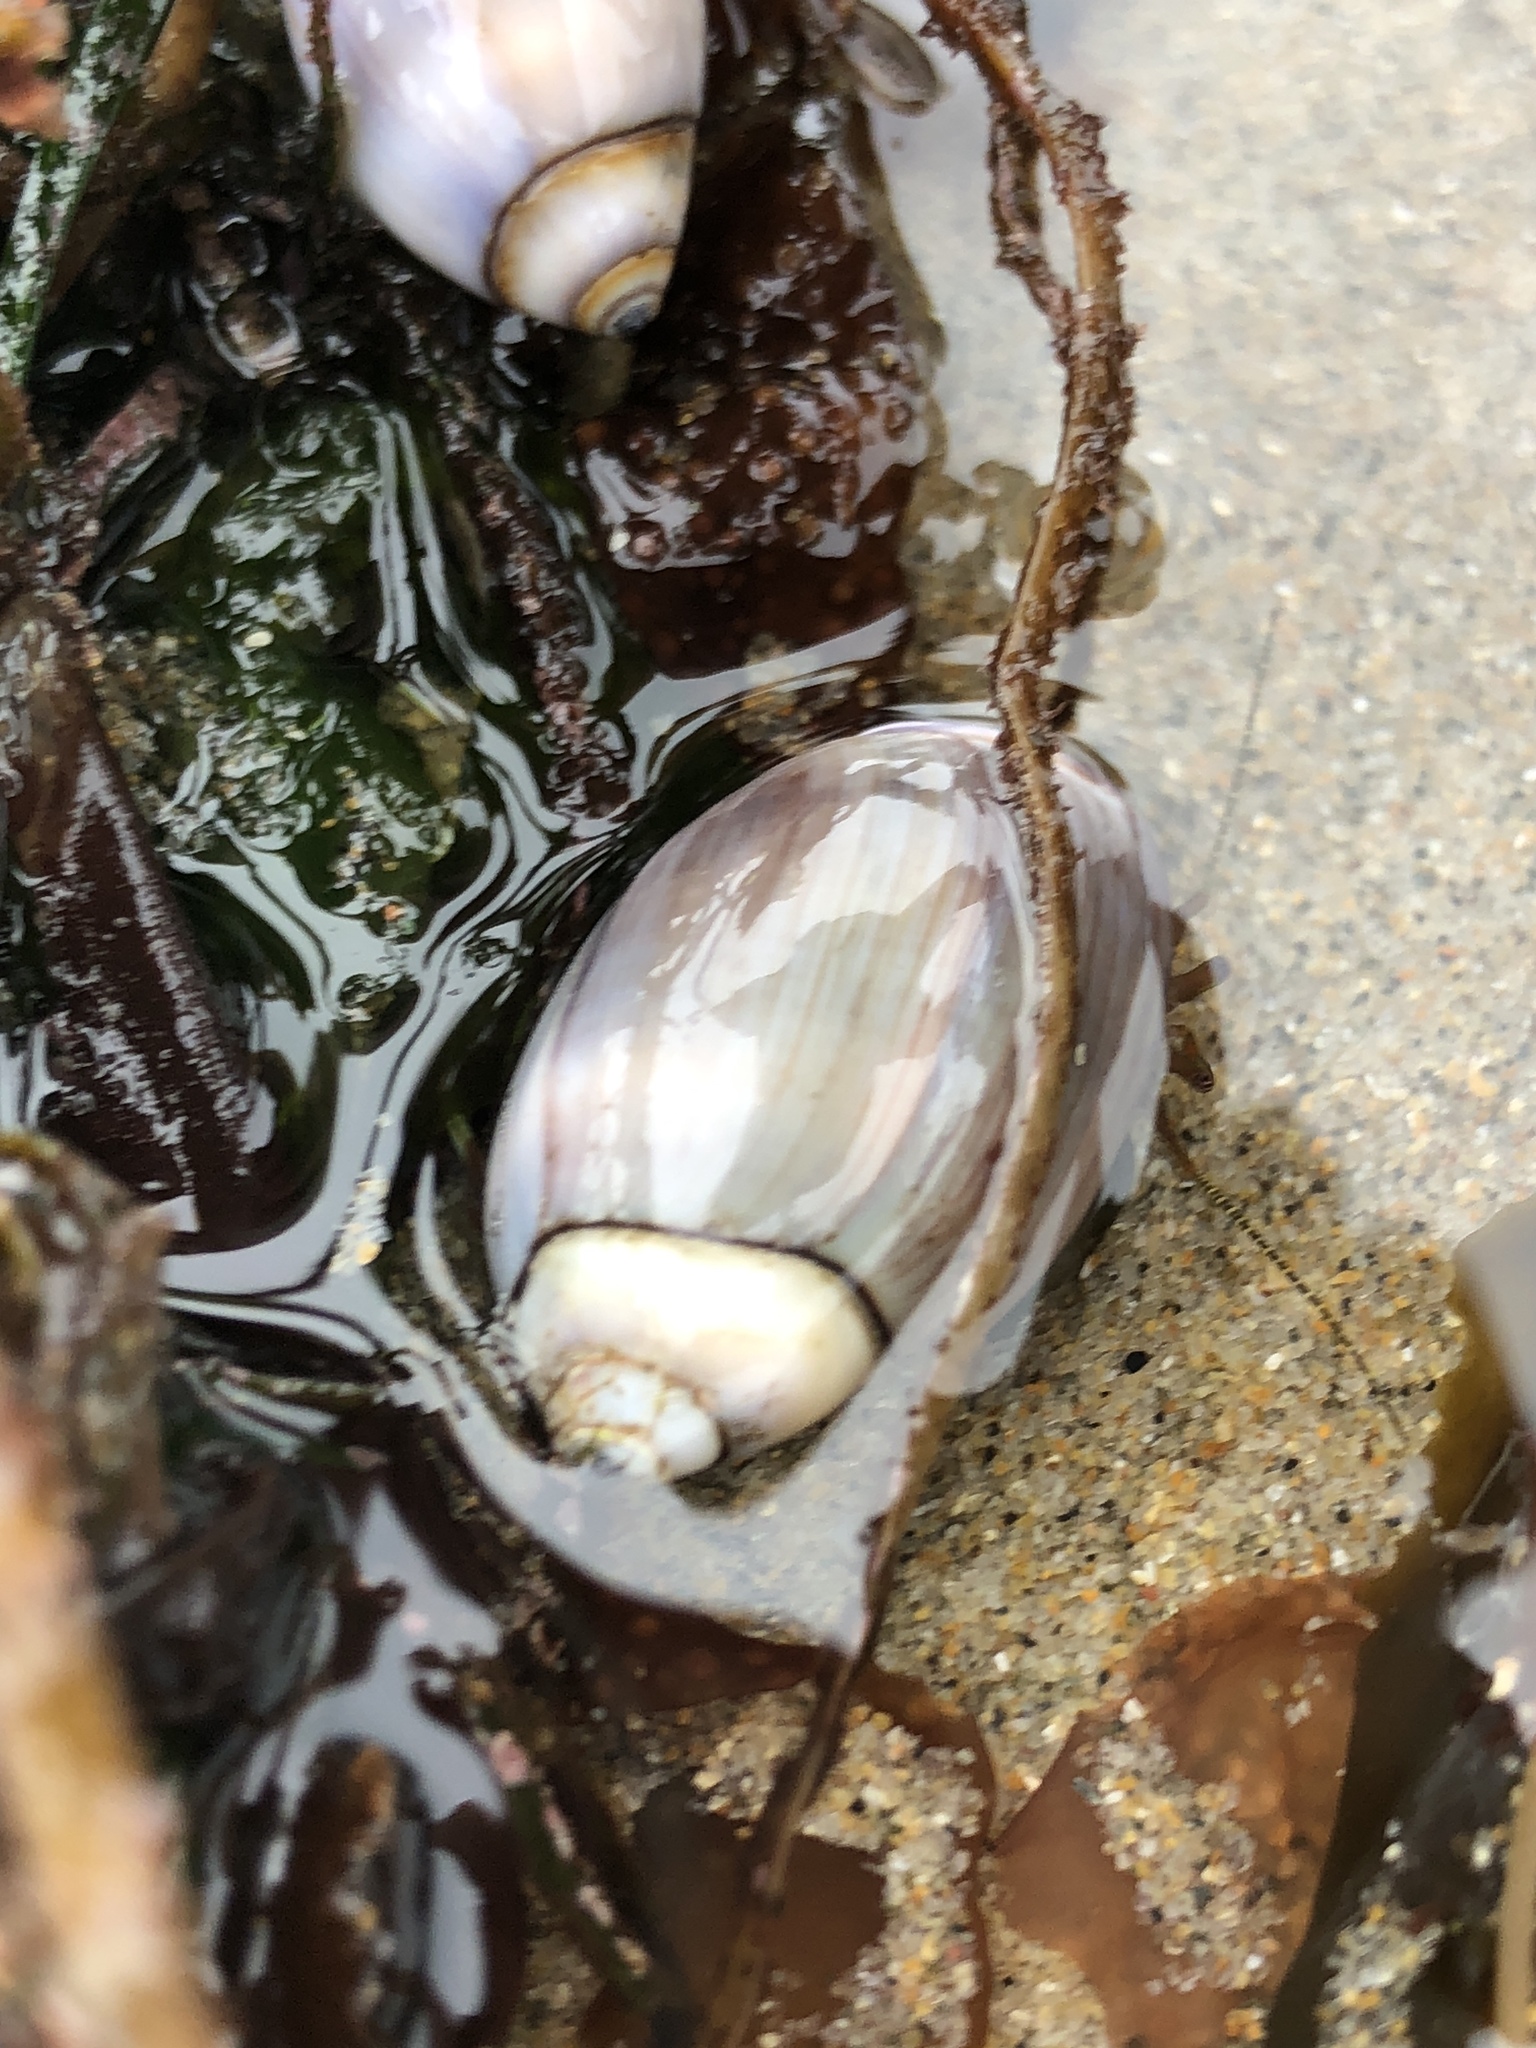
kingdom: Animalia
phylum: Mollusca
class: Gastropoda
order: Neogastropoda
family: Olividae
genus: Callianax
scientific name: Callianax biplicata
